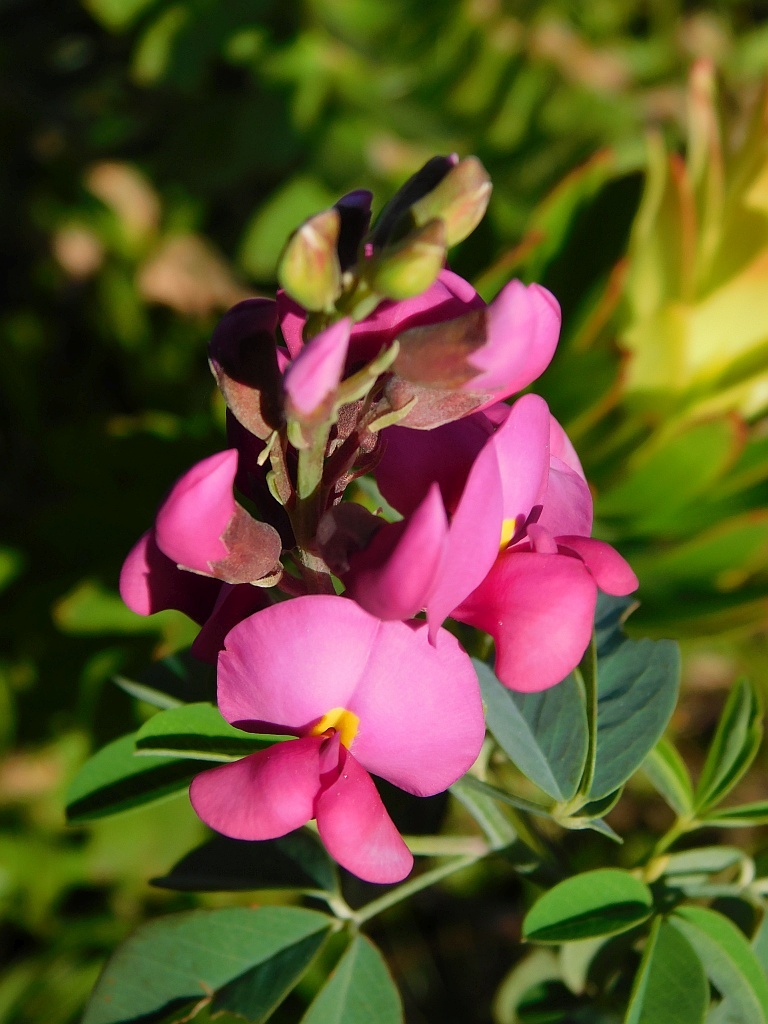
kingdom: Plantae
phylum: Tracheophyta
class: Magnoliopsida
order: Fabales
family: Fabaceae
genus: Hypocalyptus
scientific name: Hypocalyptus coluteoides
